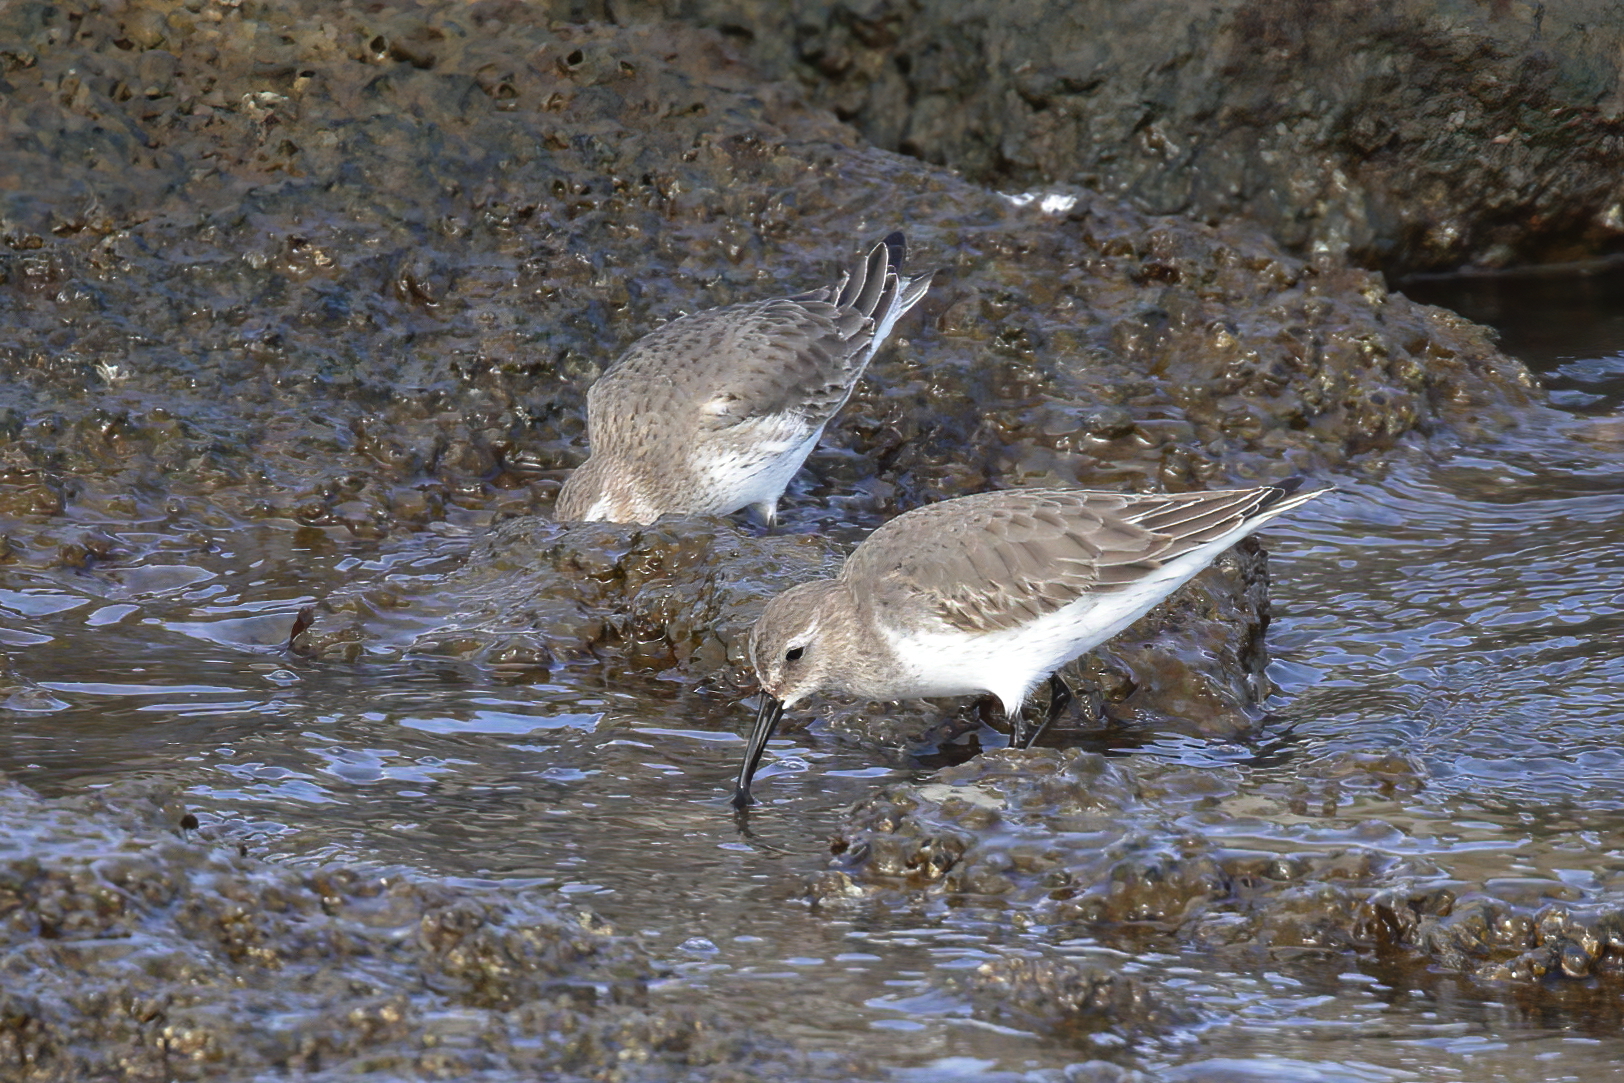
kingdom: Animalia
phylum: Chordata
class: Aves
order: Charadriiformes
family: Scolopacidae
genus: Calidris
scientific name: Calidris alpina
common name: Dunlin
